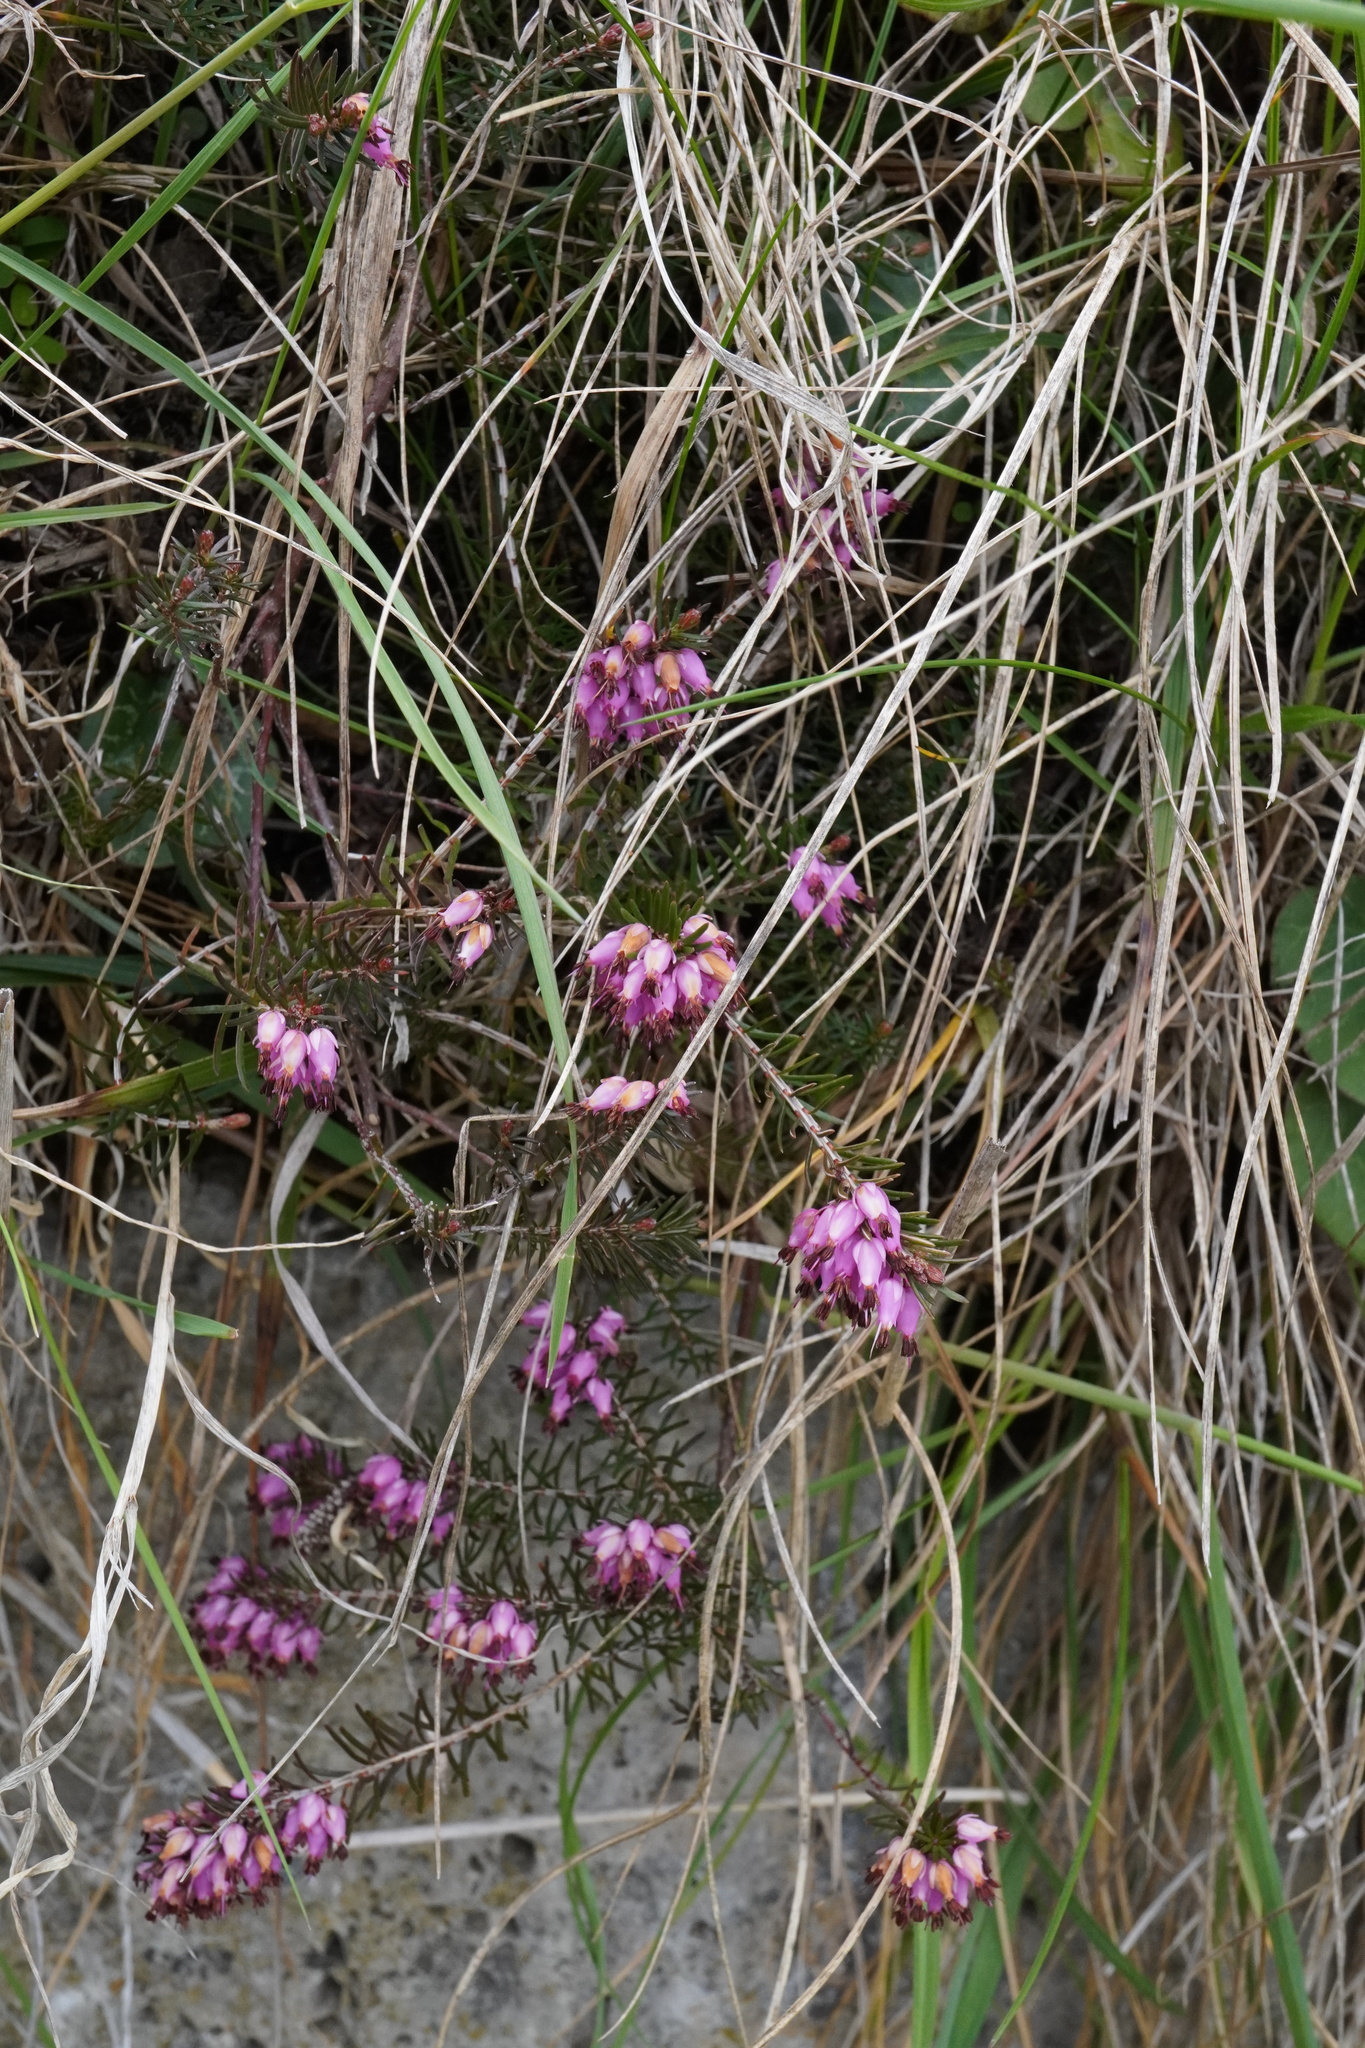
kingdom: Plantae
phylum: Tracheophyta
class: Magnoliopsida
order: Ericales
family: Ericaceae
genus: Erica
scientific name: Erica carnea
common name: Winter heath
